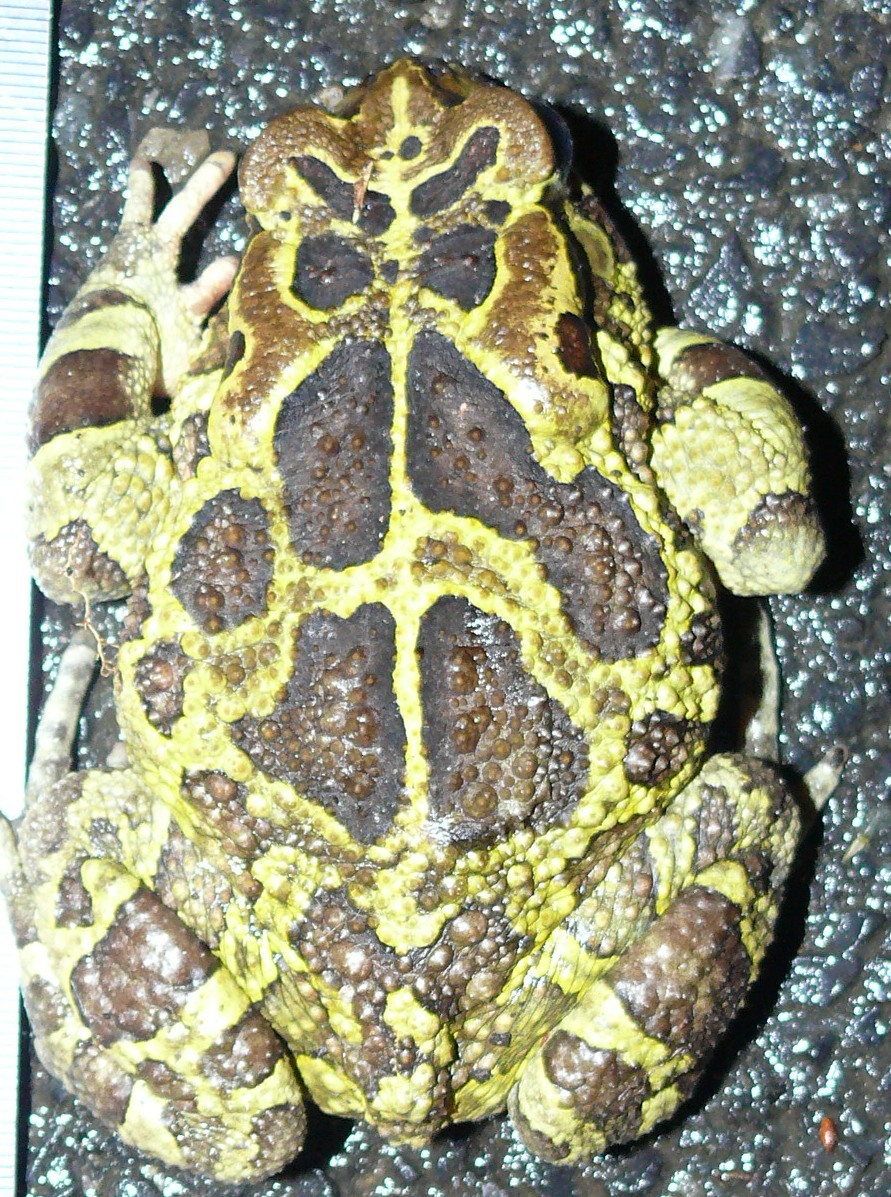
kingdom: Animalia
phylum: Chordata
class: Amphibia
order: Anura
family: Bufonidae
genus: Sclerophrys
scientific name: Sclerophrys pantherina
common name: Panther toad
